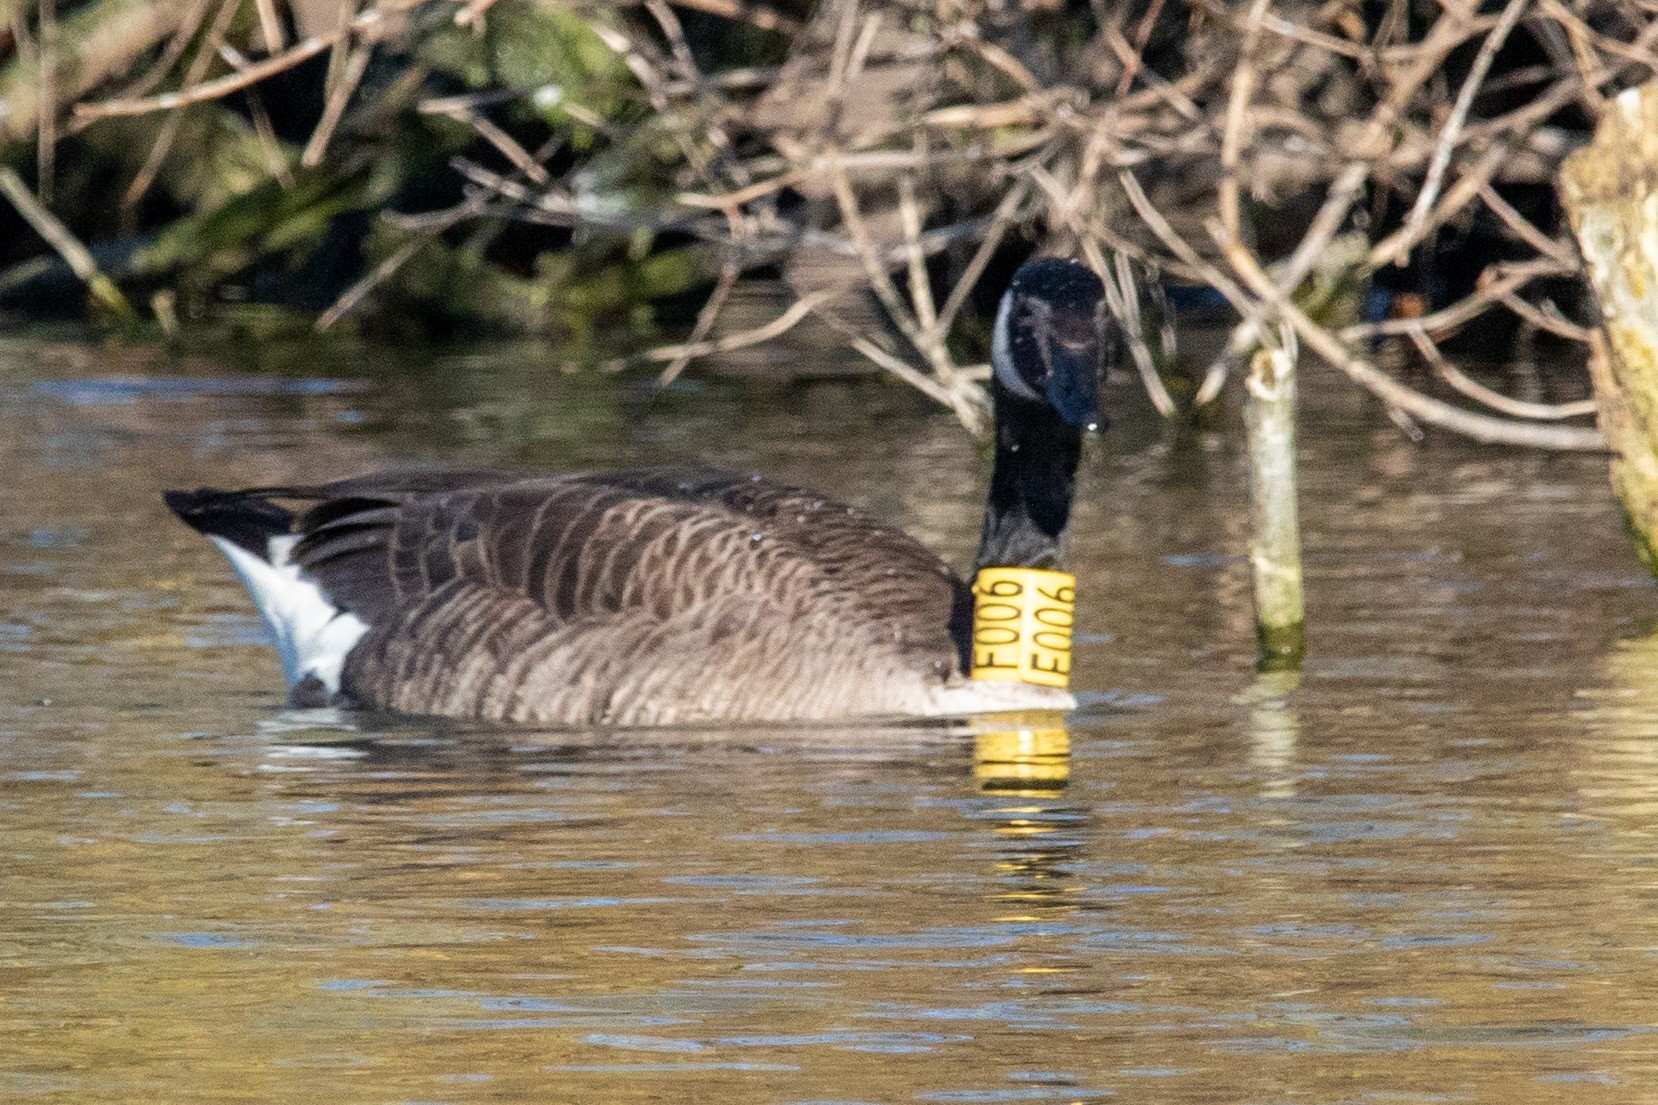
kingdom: Animalia
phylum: Chordata
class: Aves
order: Anseriformes
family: Anatidae
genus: Branta
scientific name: Branta canadensis
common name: Canada goose
